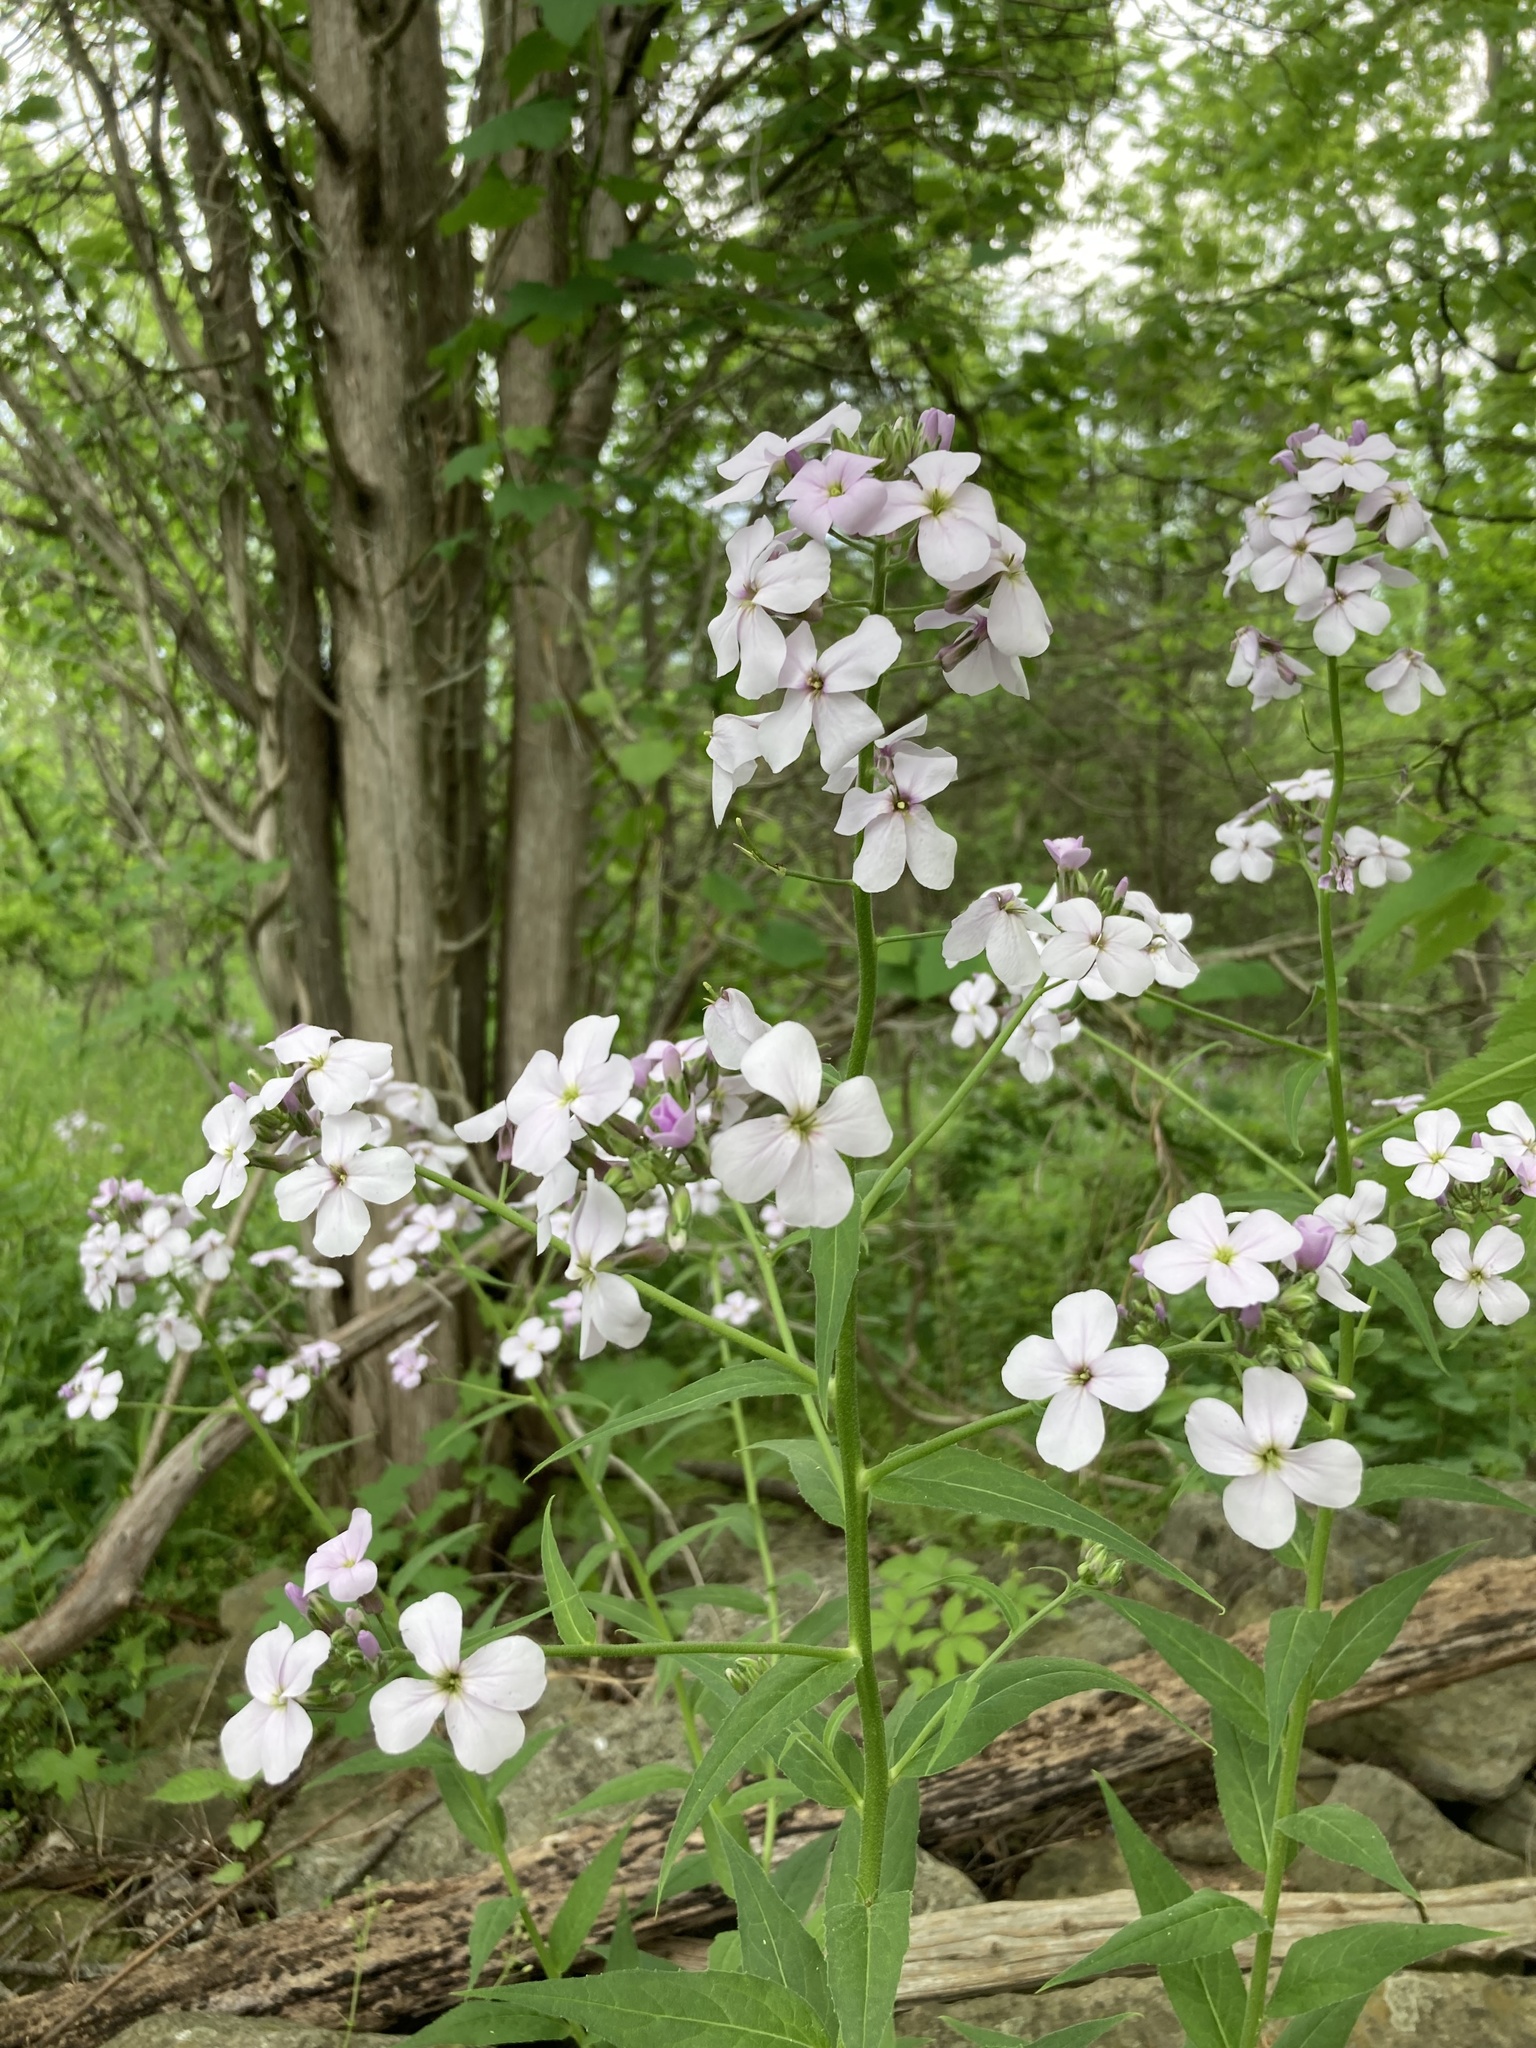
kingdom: Plantae
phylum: Tracheophyta
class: Magnoliopsida
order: Brassicales
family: Brassicaceae
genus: Hesperis
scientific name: Hesperis matronalis
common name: Dame's-violet
